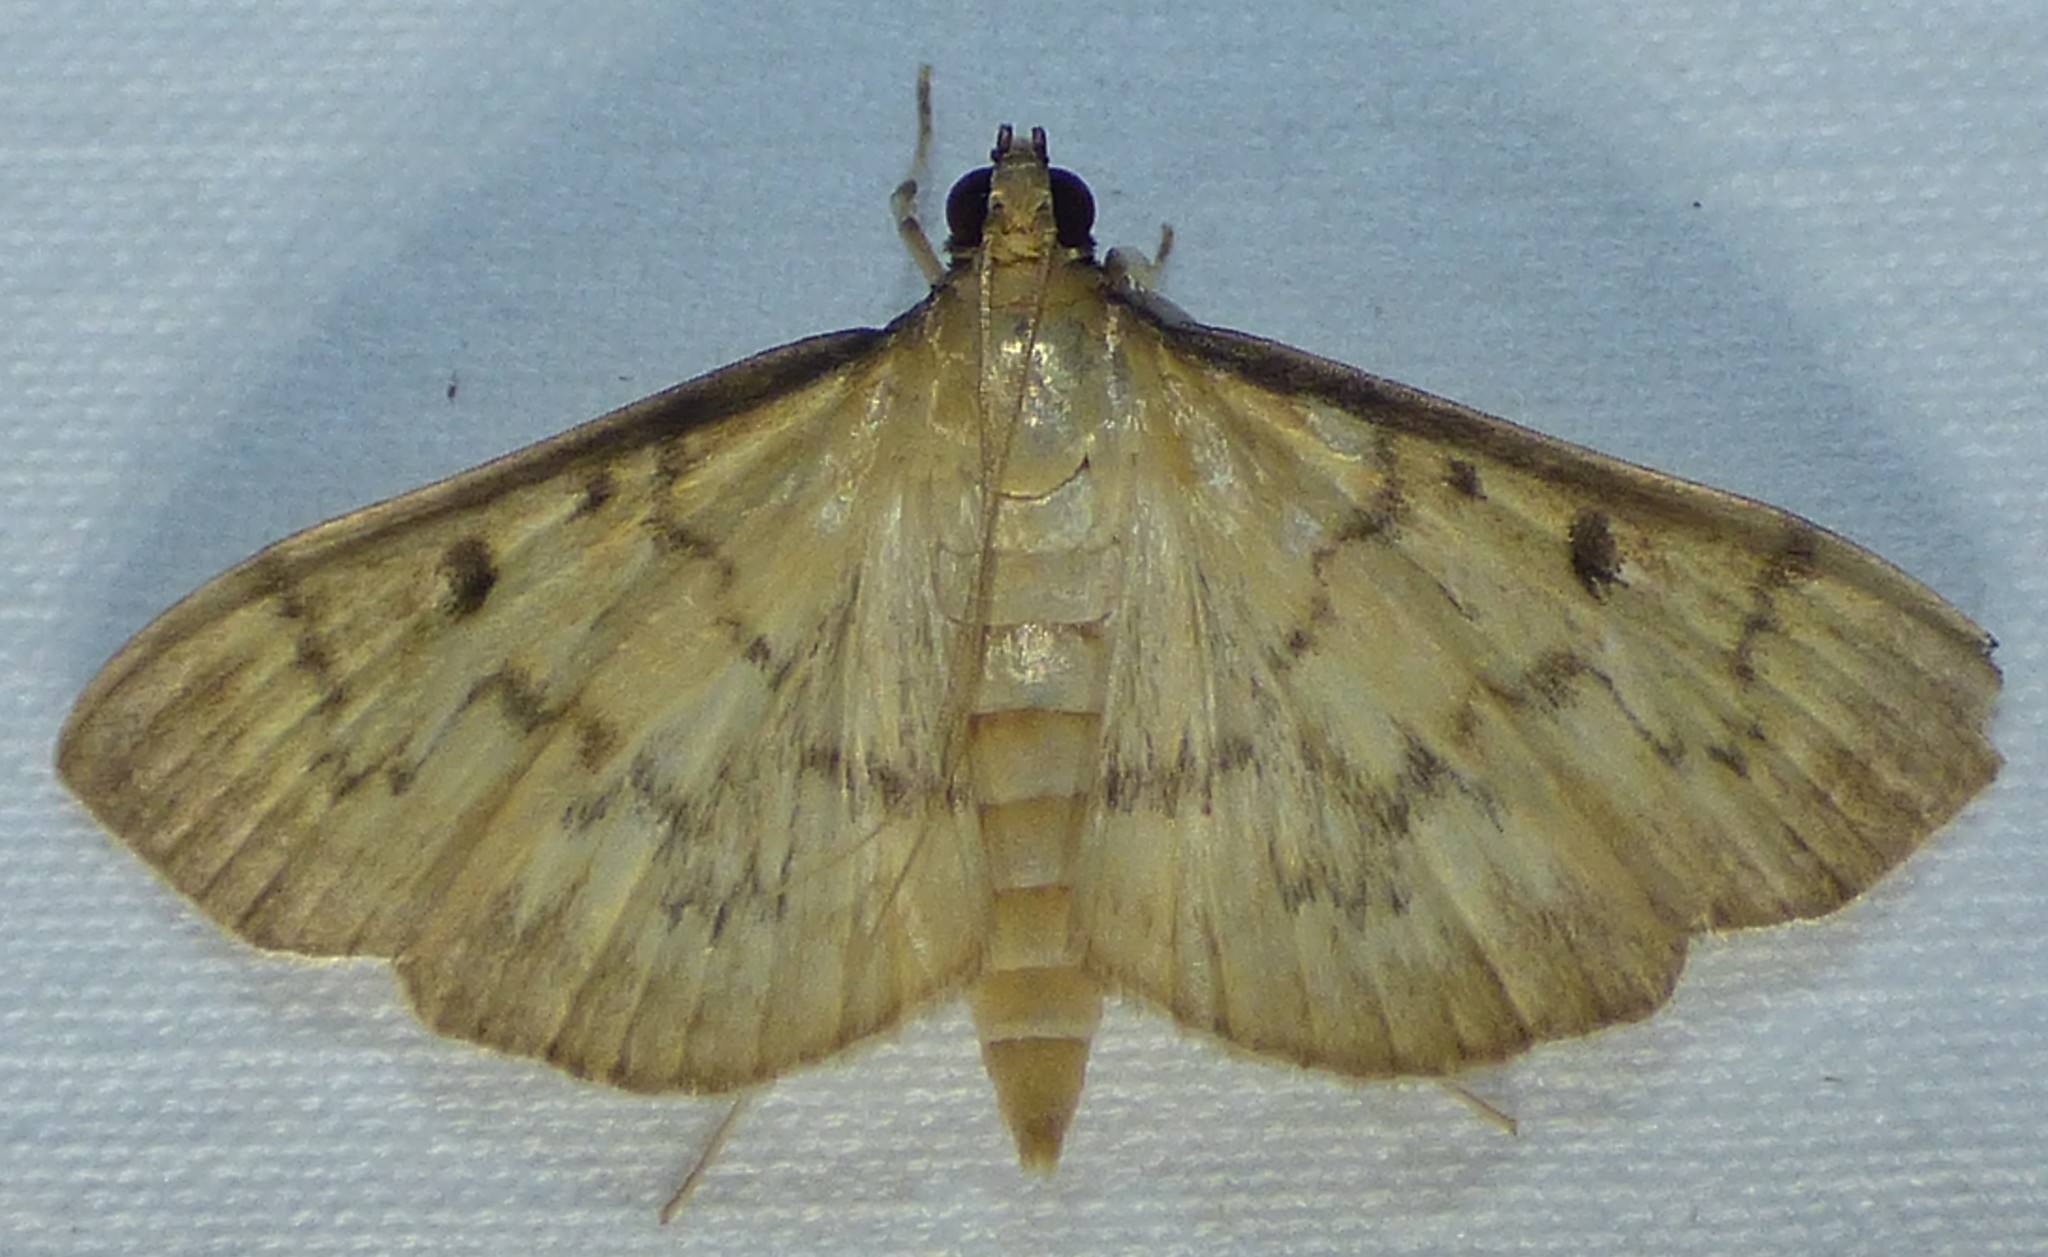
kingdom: Animalia
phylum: Arthropoda
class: Insecta
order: Lepidoptera
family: Crambidae
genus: Herpetogramma
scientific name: Herpetogramma bipunctalis
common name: Southern beet webworm
